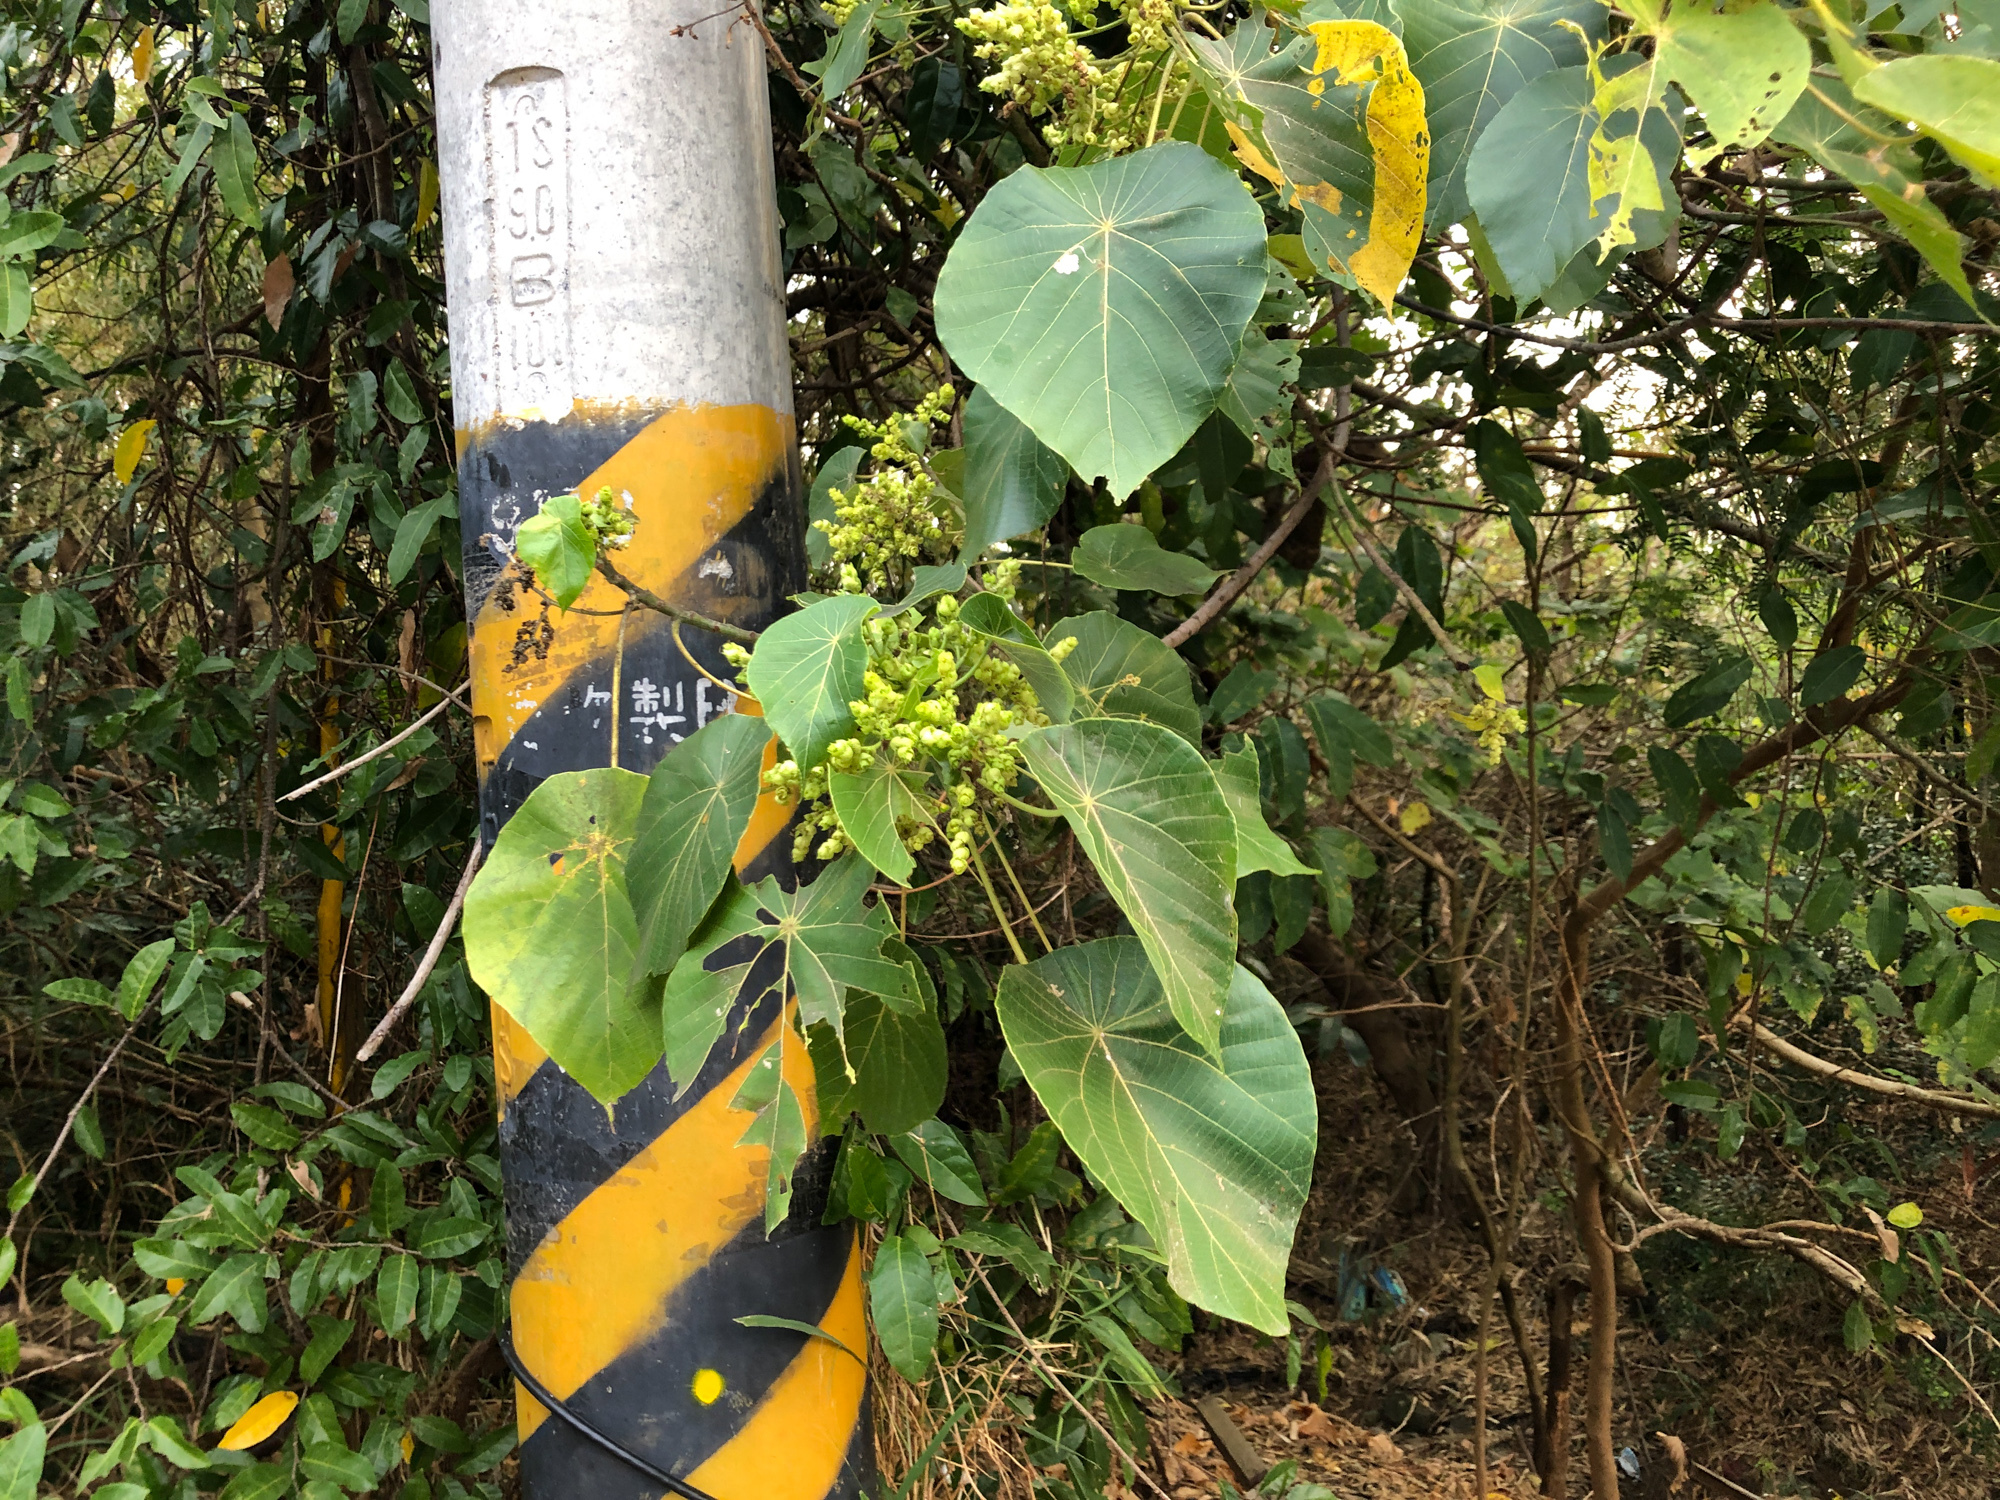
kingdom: Plantae
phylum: Tracheophyta
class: Magnoliopsida
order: Malpighiales
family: Euphorbiaceae
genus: Macaranga
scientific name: Macaranga tanarius
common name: Parasol leaf tree
